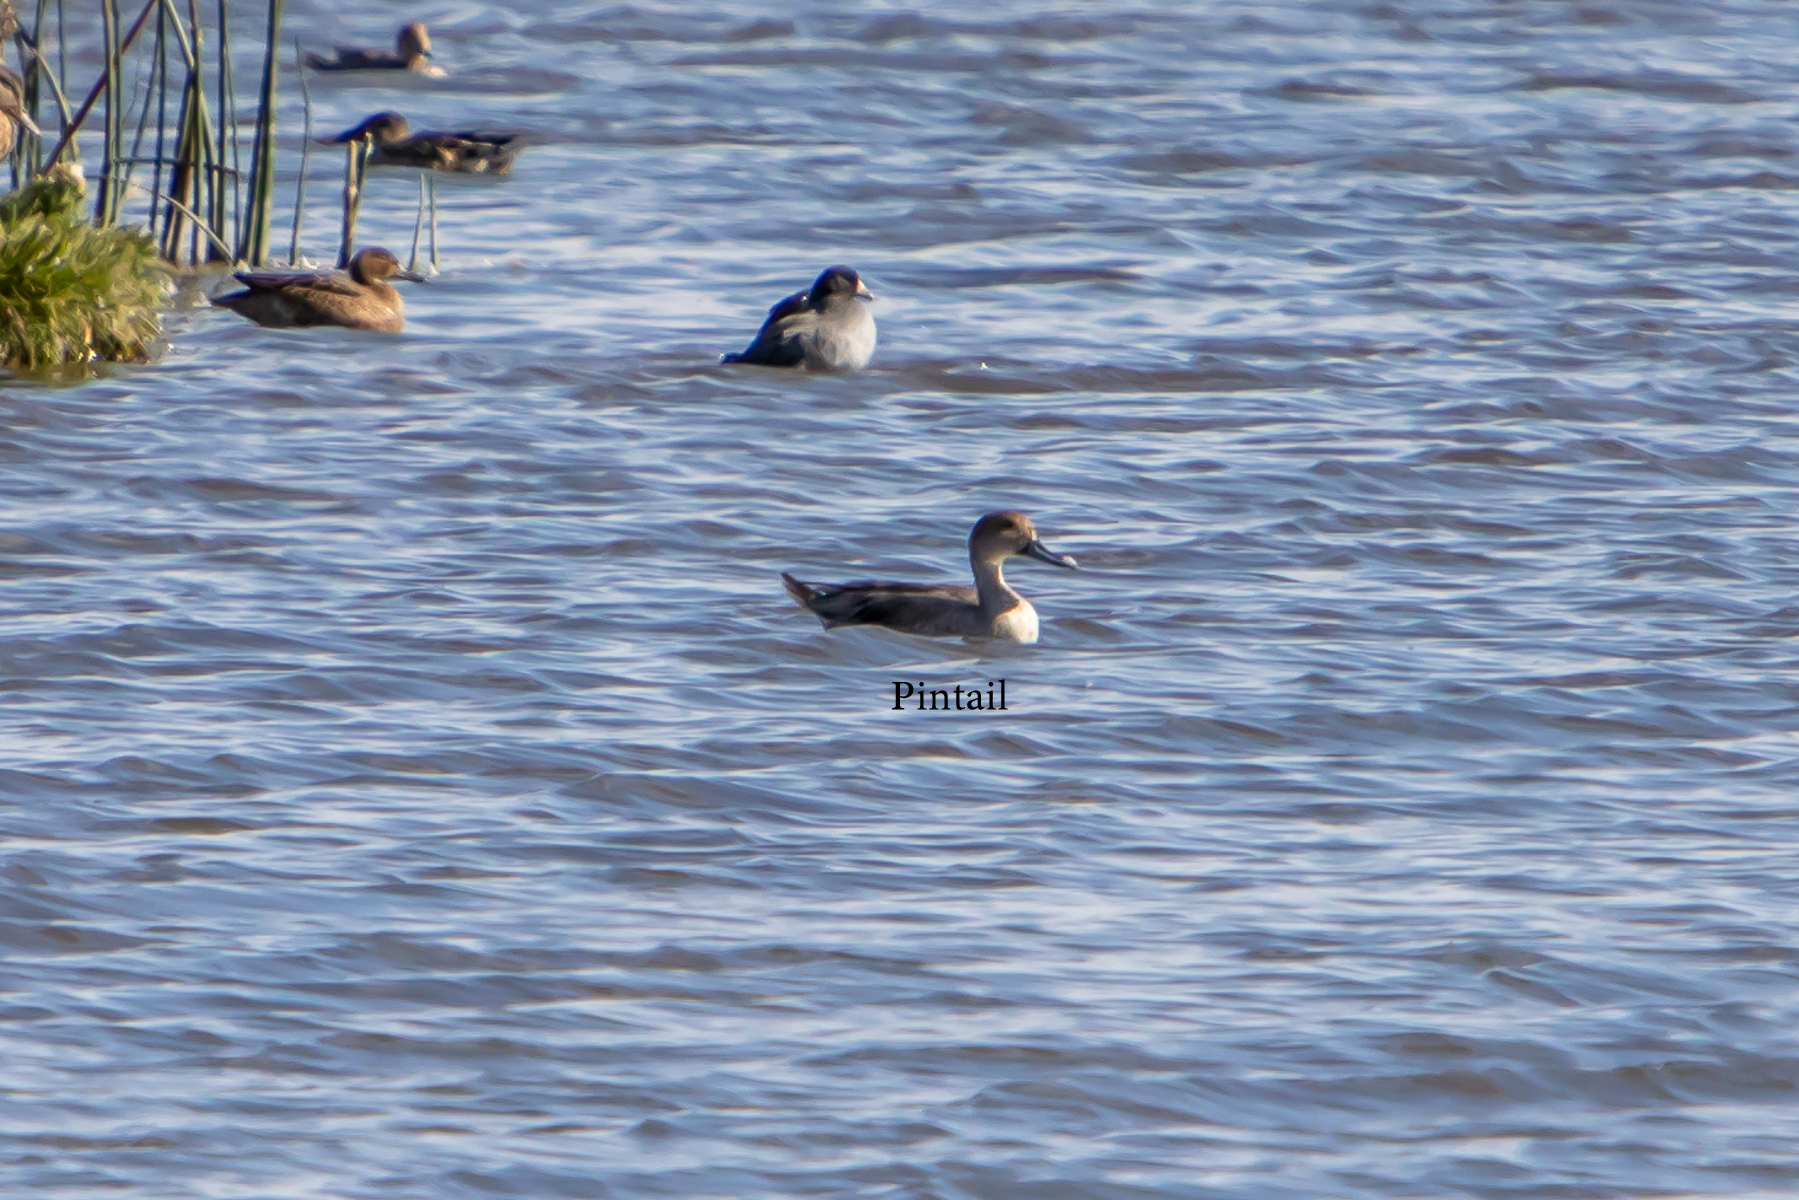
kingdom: Animalia
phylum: Chordata
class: Aves
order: Anseriformes
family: Anatidae
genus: Anas
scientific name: Anas acuta
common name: Northern pintail
